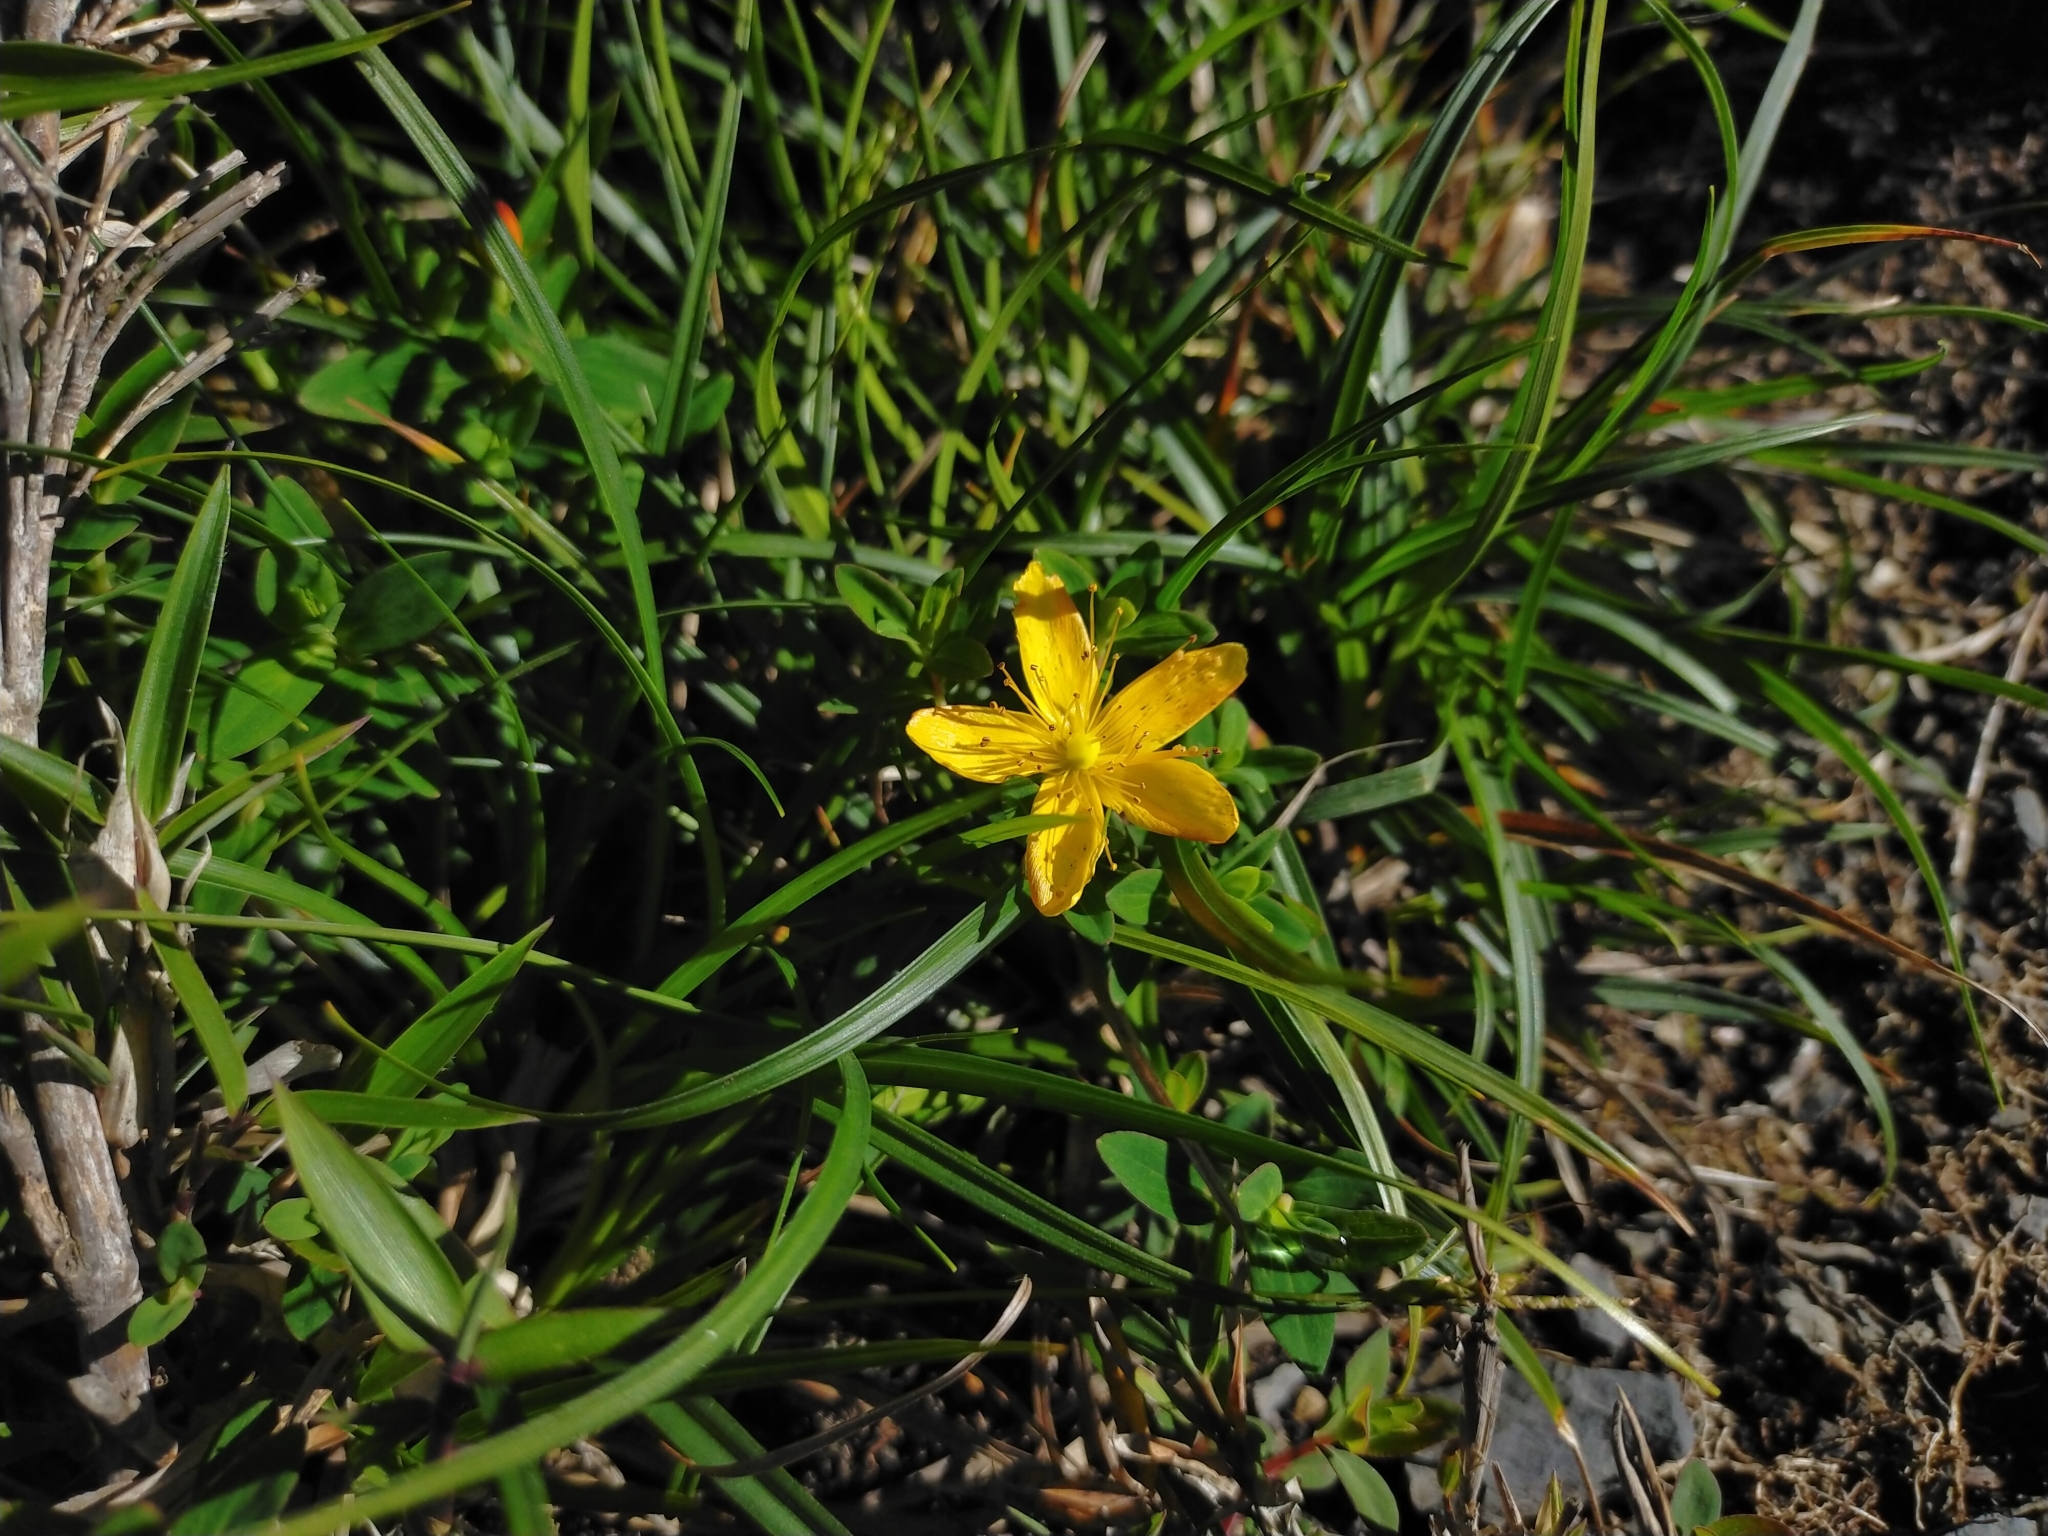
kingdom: Plantae
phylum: Tracheophyta
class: Magnoliopsida
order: Malpighiales
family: Hypericaceae
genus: Hypericum
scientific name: Hypericum nagasawae
